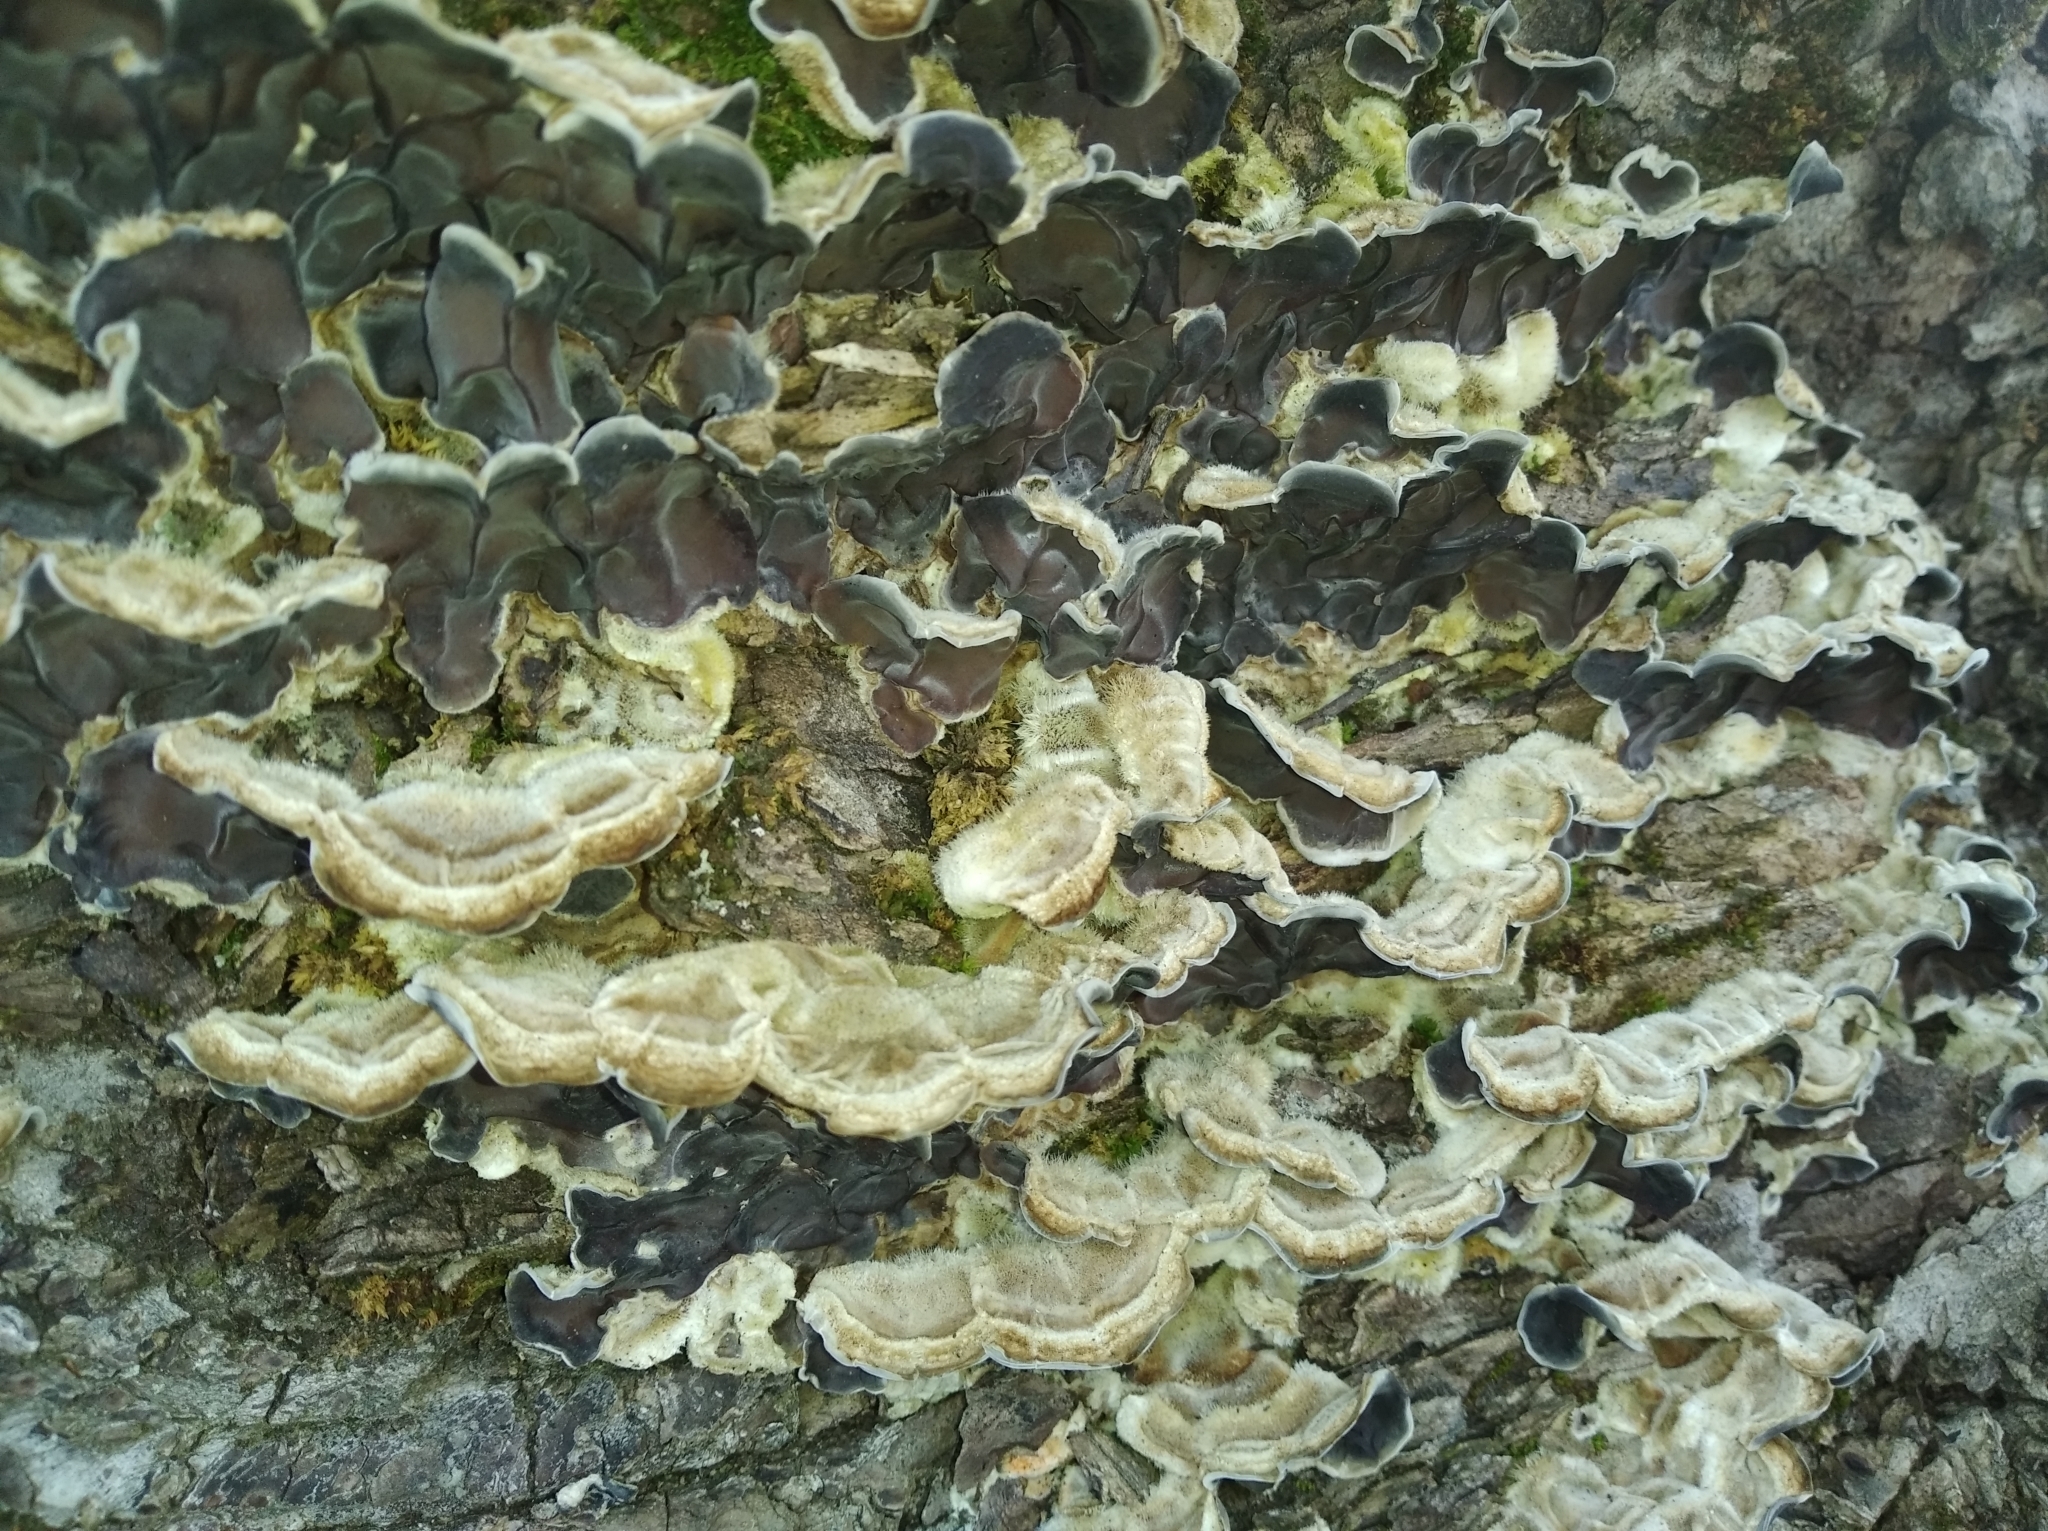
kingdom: Fungi
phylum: Basidiomycota
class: Agaricomycetes
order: Auriculariales
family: Auriculariaceae
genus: Auricularia
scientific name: Auricularia mesenterica
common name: Tripe fungus
